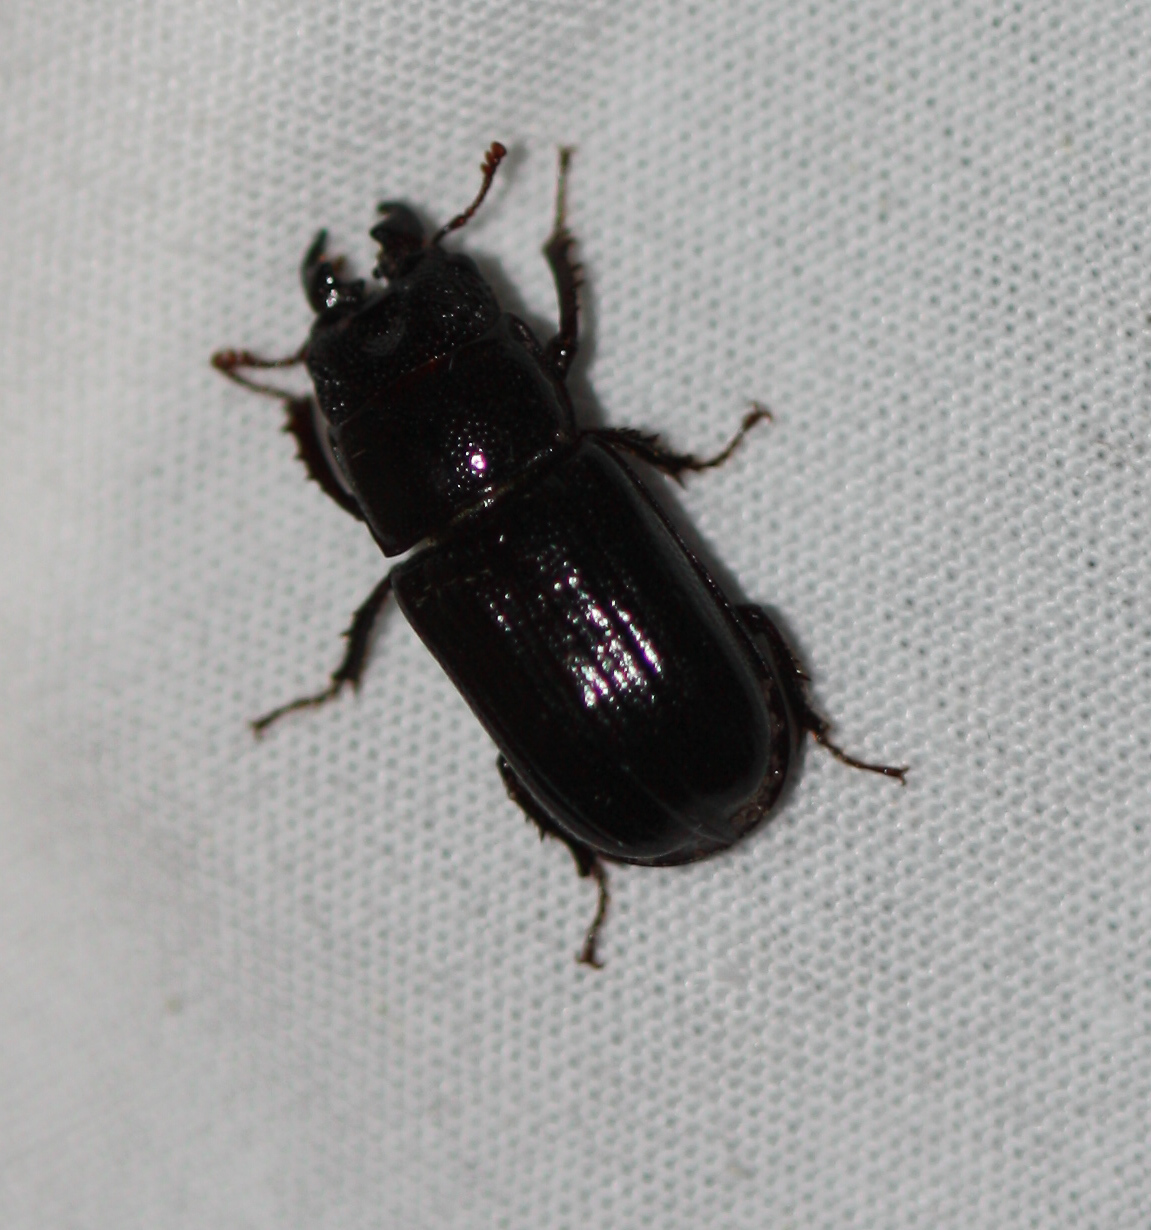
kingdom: Animalia
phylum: Arthropoda
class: Insecta
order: Coleoptera
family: Lucanidae
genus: Ceruchus
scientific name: Ceruchus piceus
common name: Red-rot decay stag beetle
